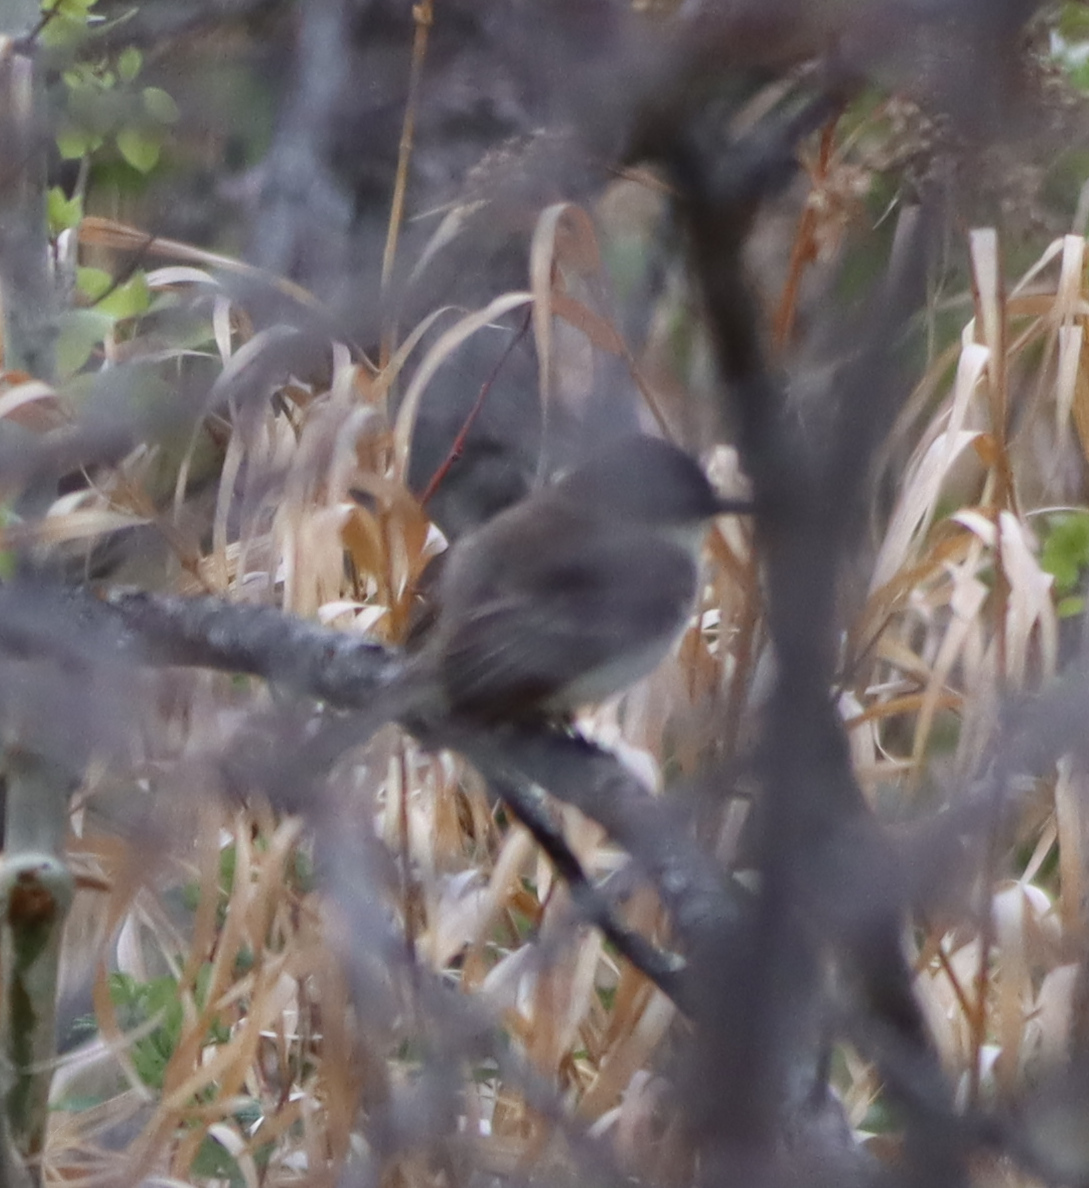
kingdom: Animalia
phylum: Chordata
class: Aves
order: Passeriformes
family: Tyrannidae
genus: Sayornis
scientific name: Sayornis phoebe
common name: Eastern phoebe
